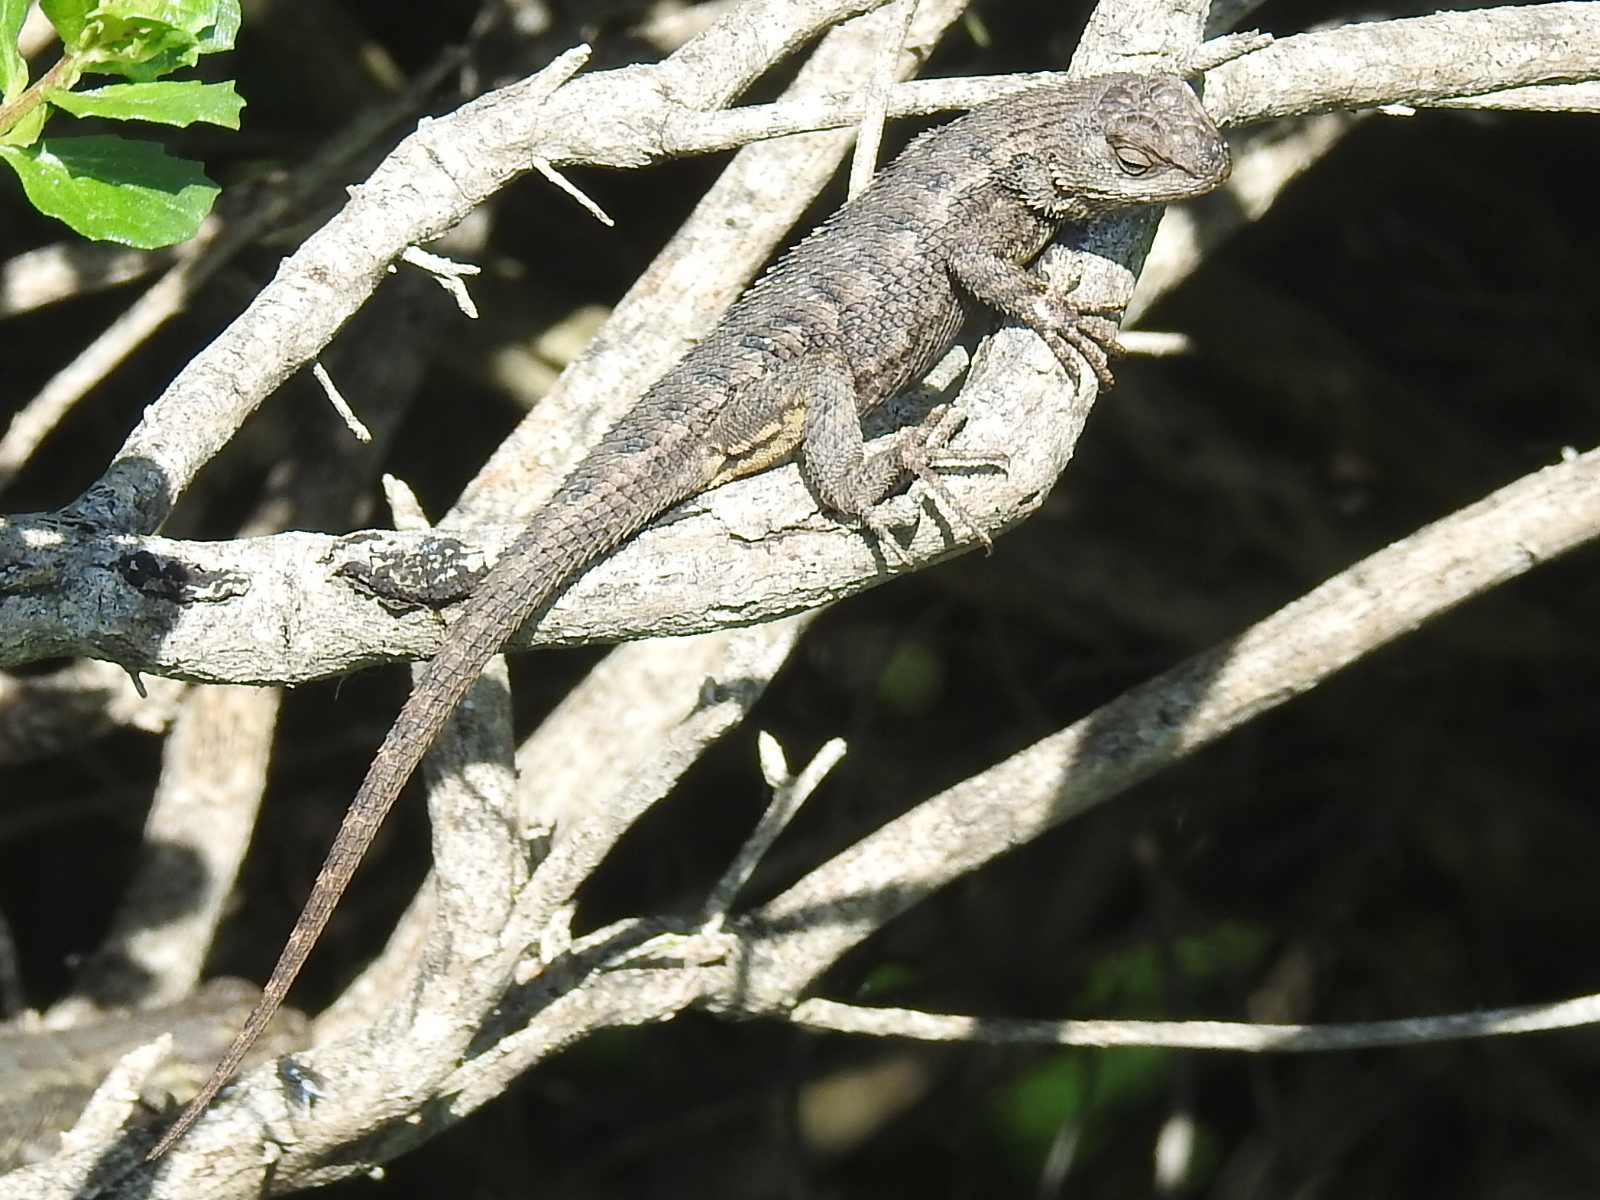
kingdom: Animalia
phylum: Chordata
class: Squamata
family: Phrynosomatidae
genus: Sceloporus
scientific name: Sceloporus occidentalis
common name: Western fence lizard
